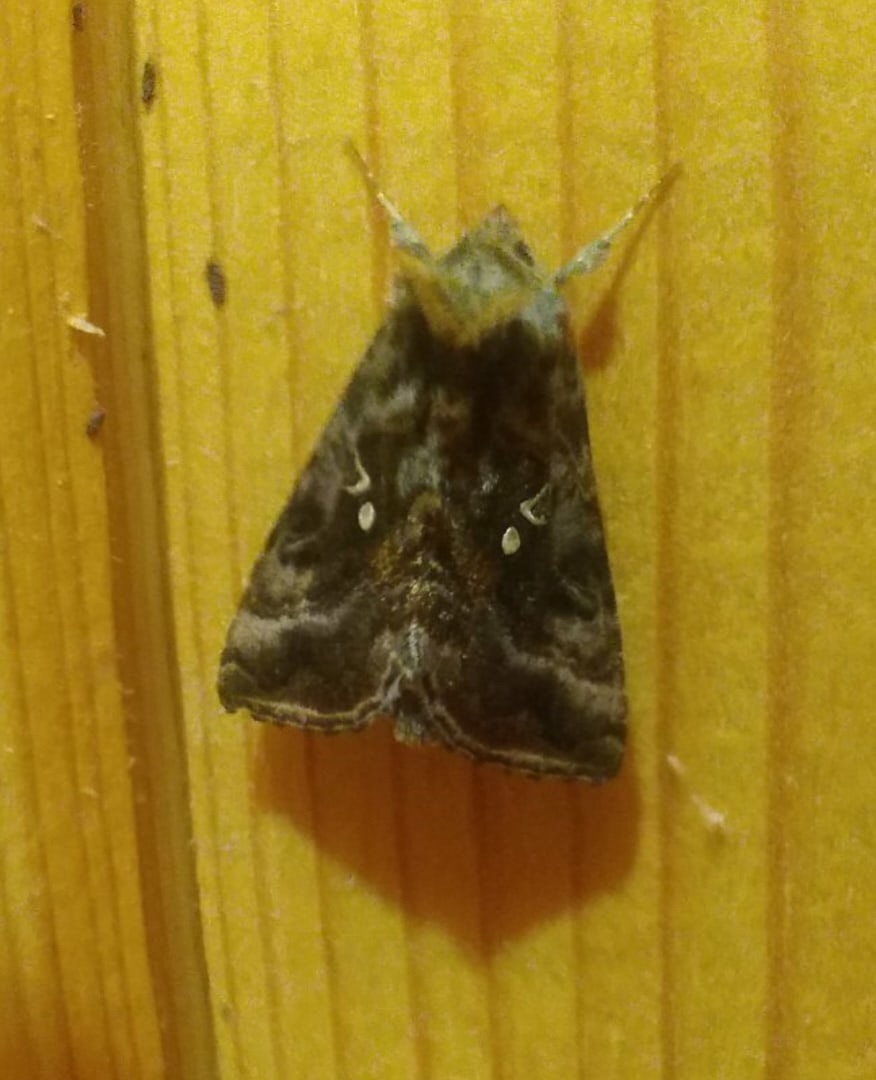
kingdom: Animalia
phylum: Arthropoda
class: Insecta
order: Lepidoptera
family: Noctuidae
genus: Autographa
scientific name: Autographa pulchrina
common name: Beautiful golden y
